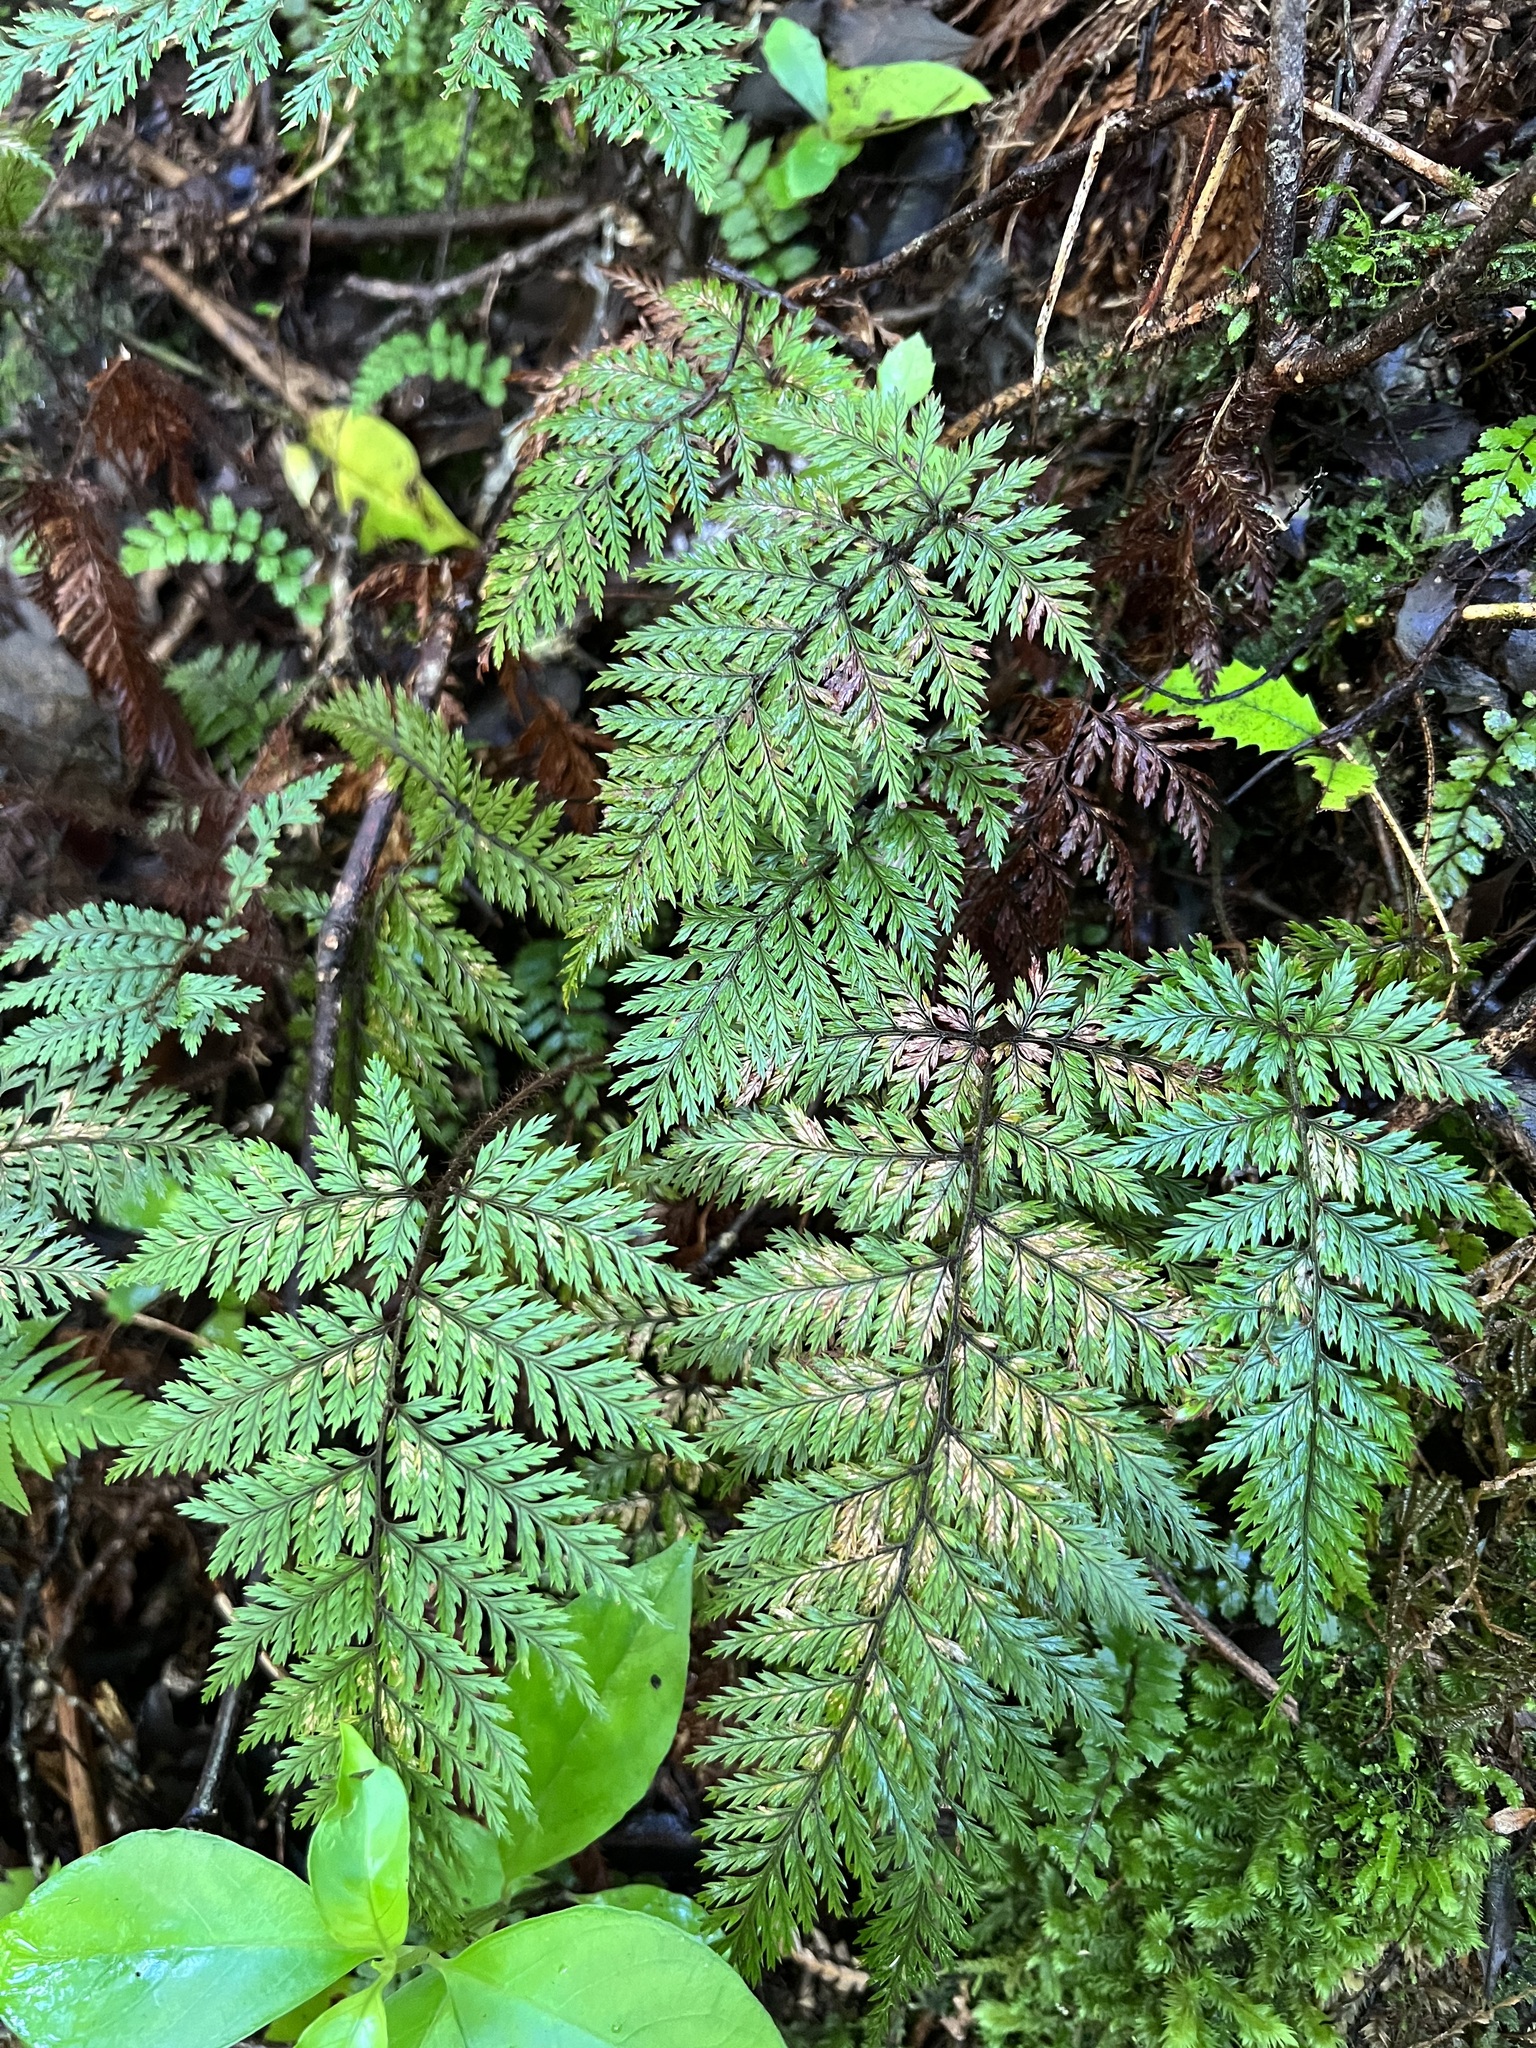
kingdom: Plantae
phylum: Tracheophyta
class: Polypodiopsida
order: Polypodiales
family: Dryopteridaceae
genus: Lastreopsis
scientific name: Lastreopsis hispida
